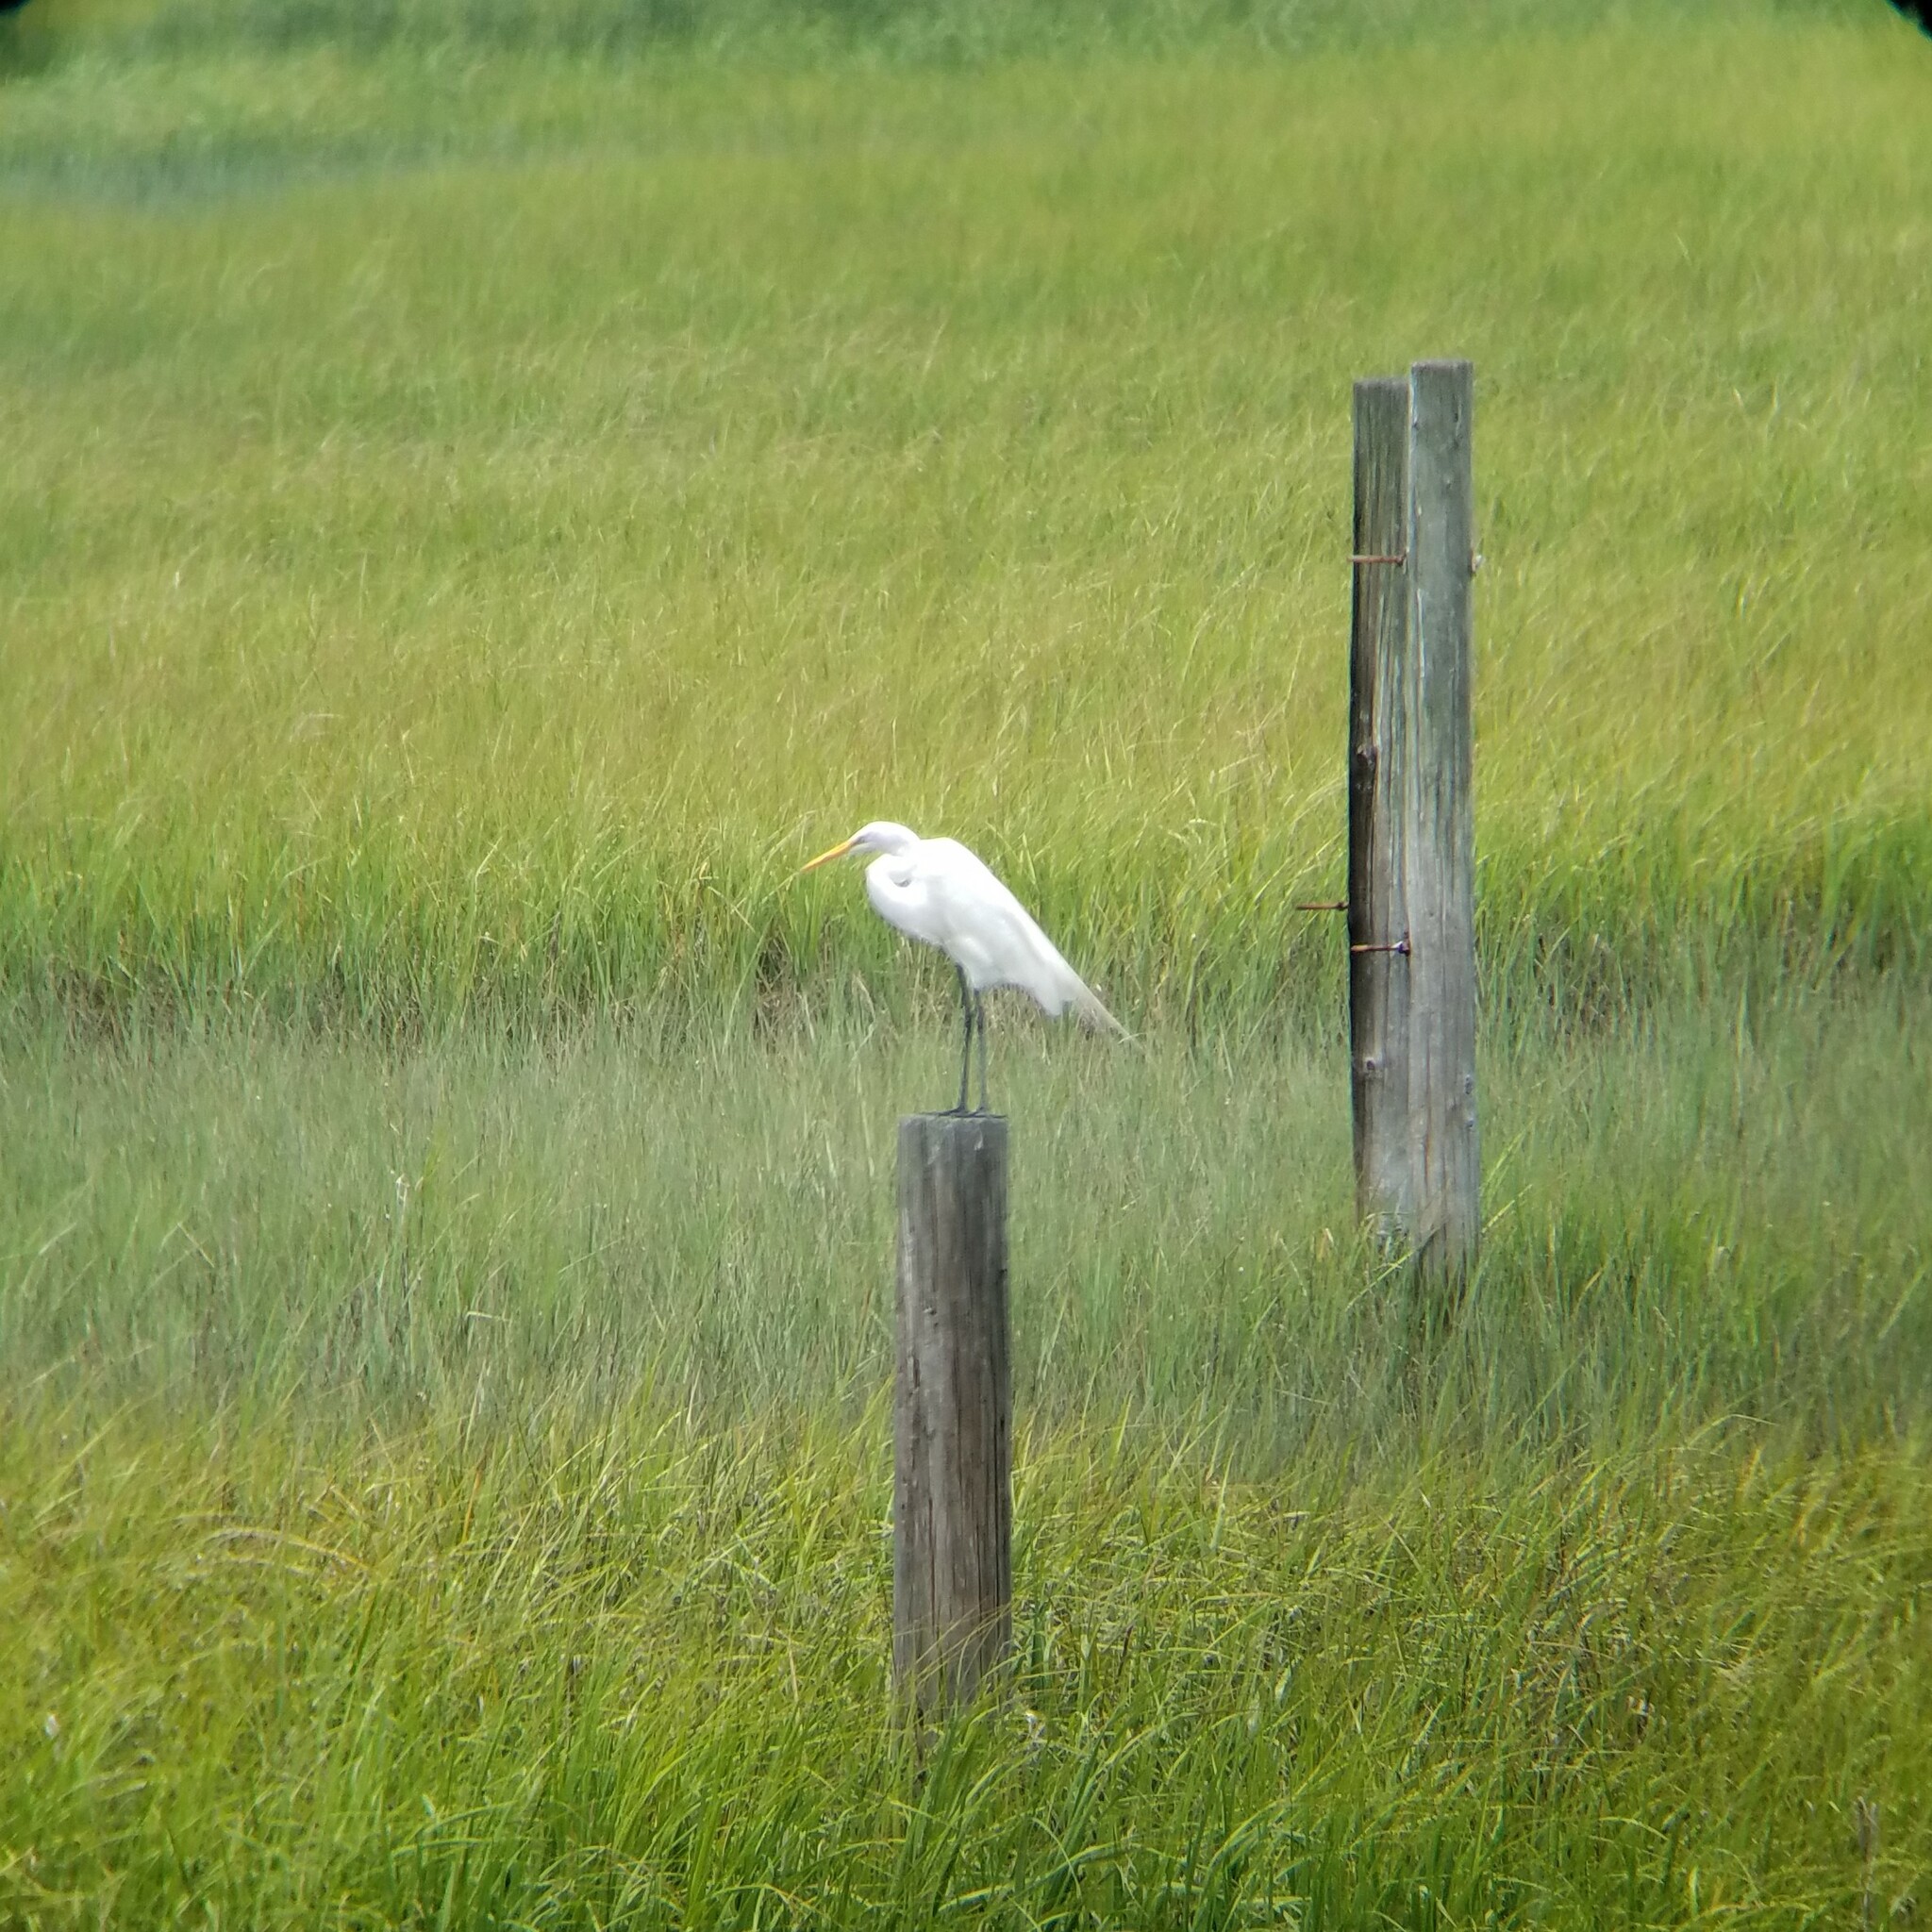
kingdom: Animalia
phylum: Chordata
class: Aves
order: Pelecaniformes
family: Ardeidae
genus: Ardea
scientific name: Ardea alba
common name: Great egret
